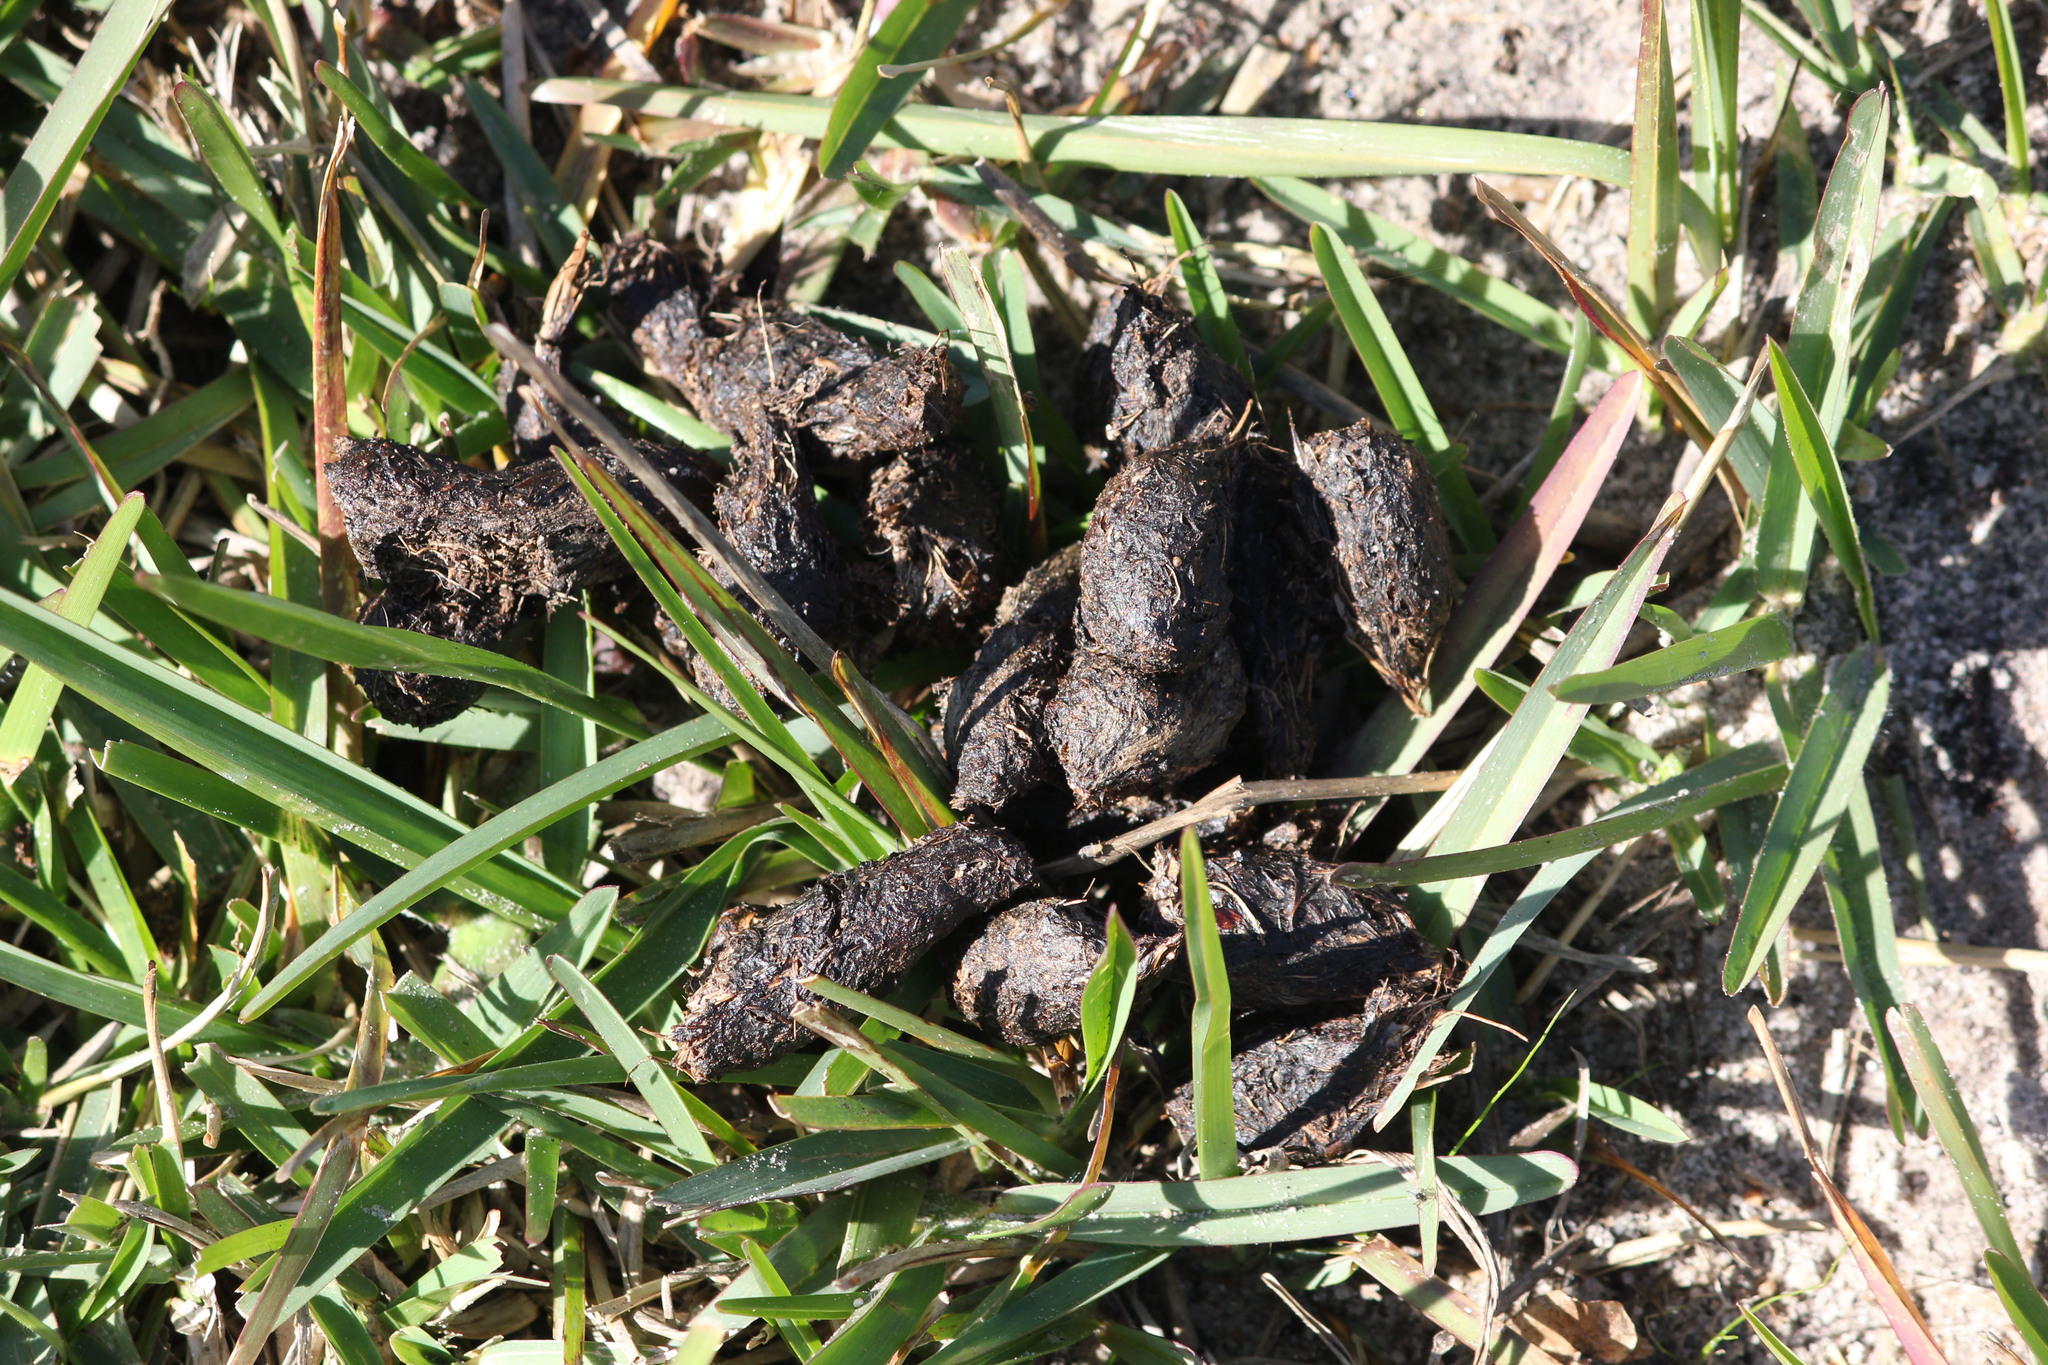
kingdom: Animalia
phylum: Chordata
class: Mammalia
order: Rodentia
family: Hystricidae
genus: Hystrix
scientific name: Hystrix africaeaustralis
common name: Cape porcupine
